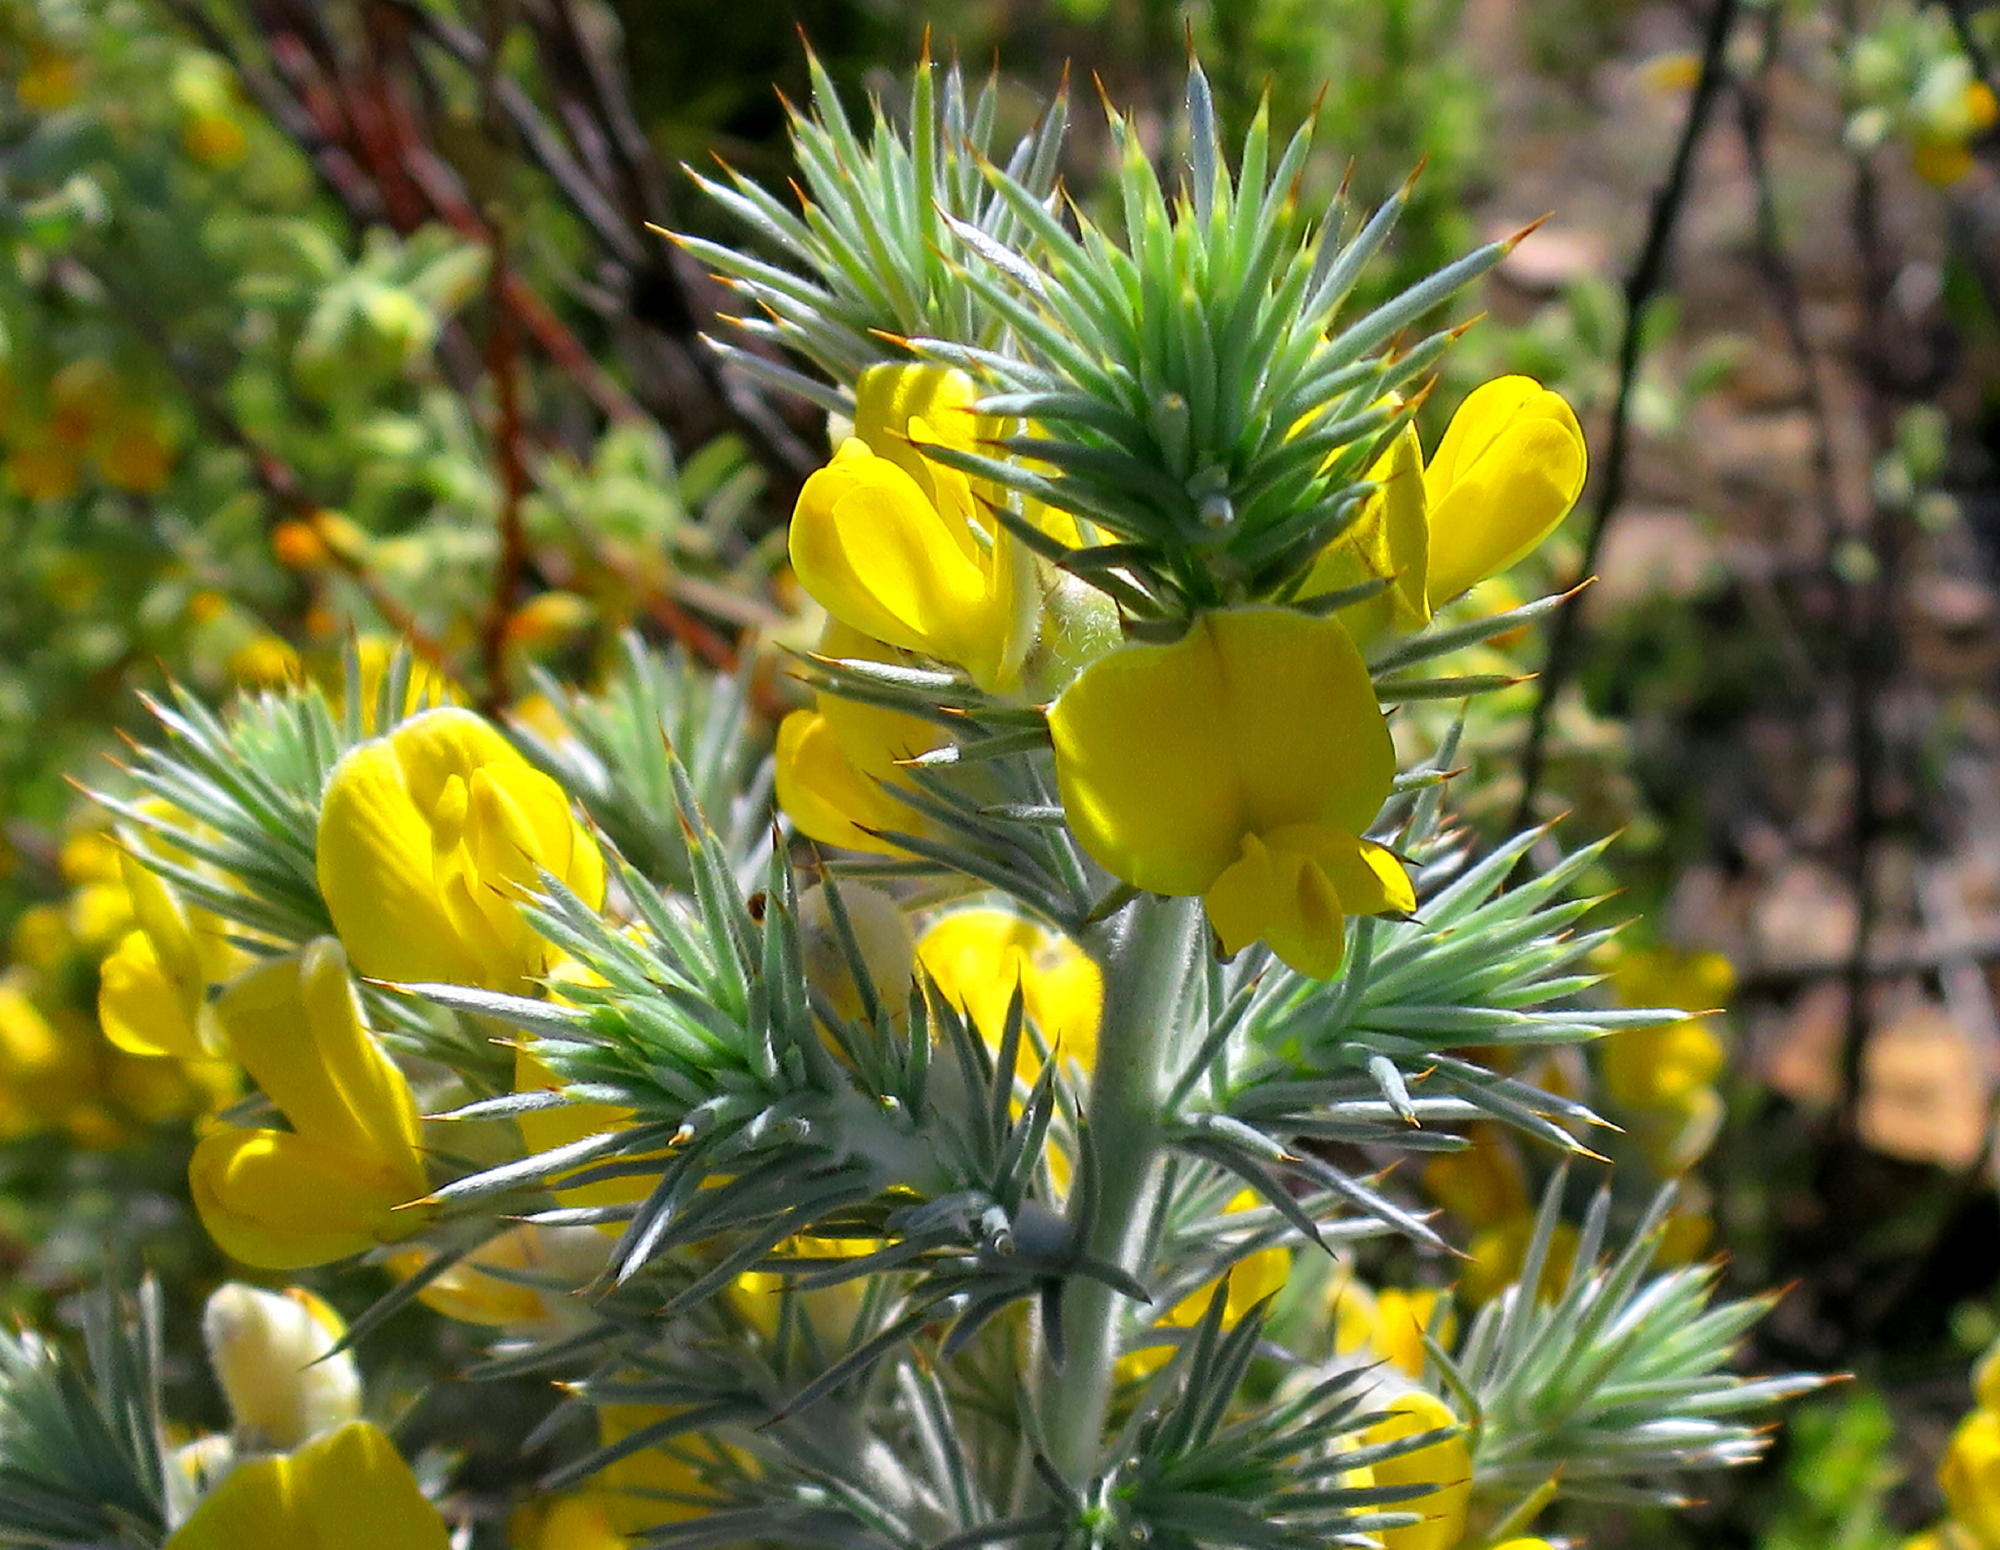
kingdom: Plantae
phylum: Tracheophyta
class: Magnoliopsida
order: Fabales
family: Fabaceae
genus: Aspalathus
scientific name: Aspalathus hystrix
